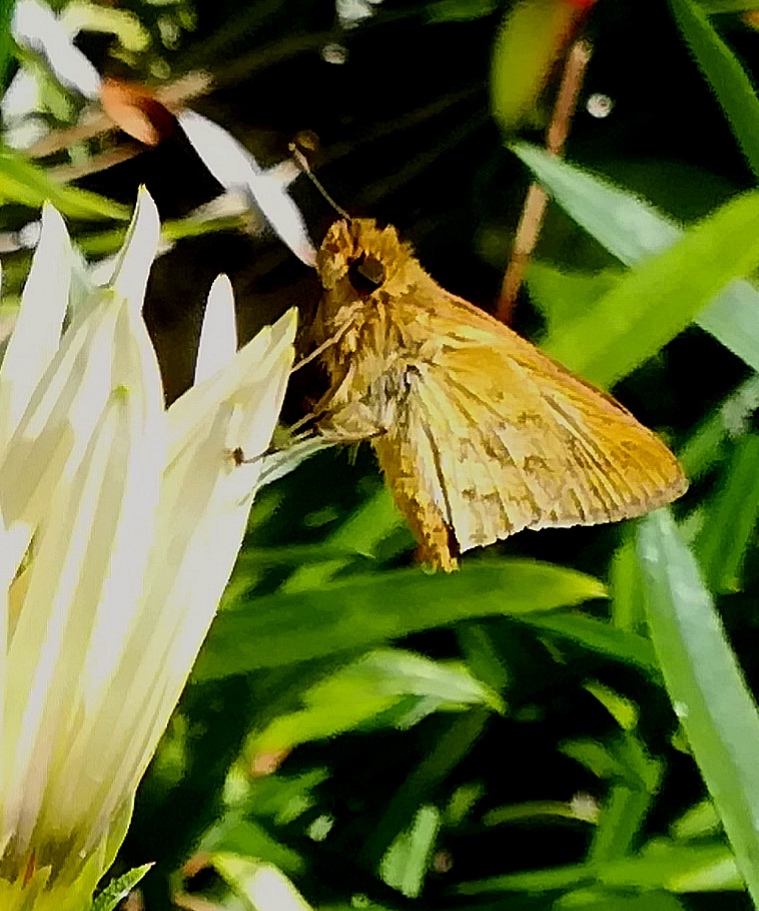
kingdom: Animalia
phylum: Arthropoda
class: Insecta
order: Lepidoptera
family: Hesperiidae
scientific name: Hesperiidae
